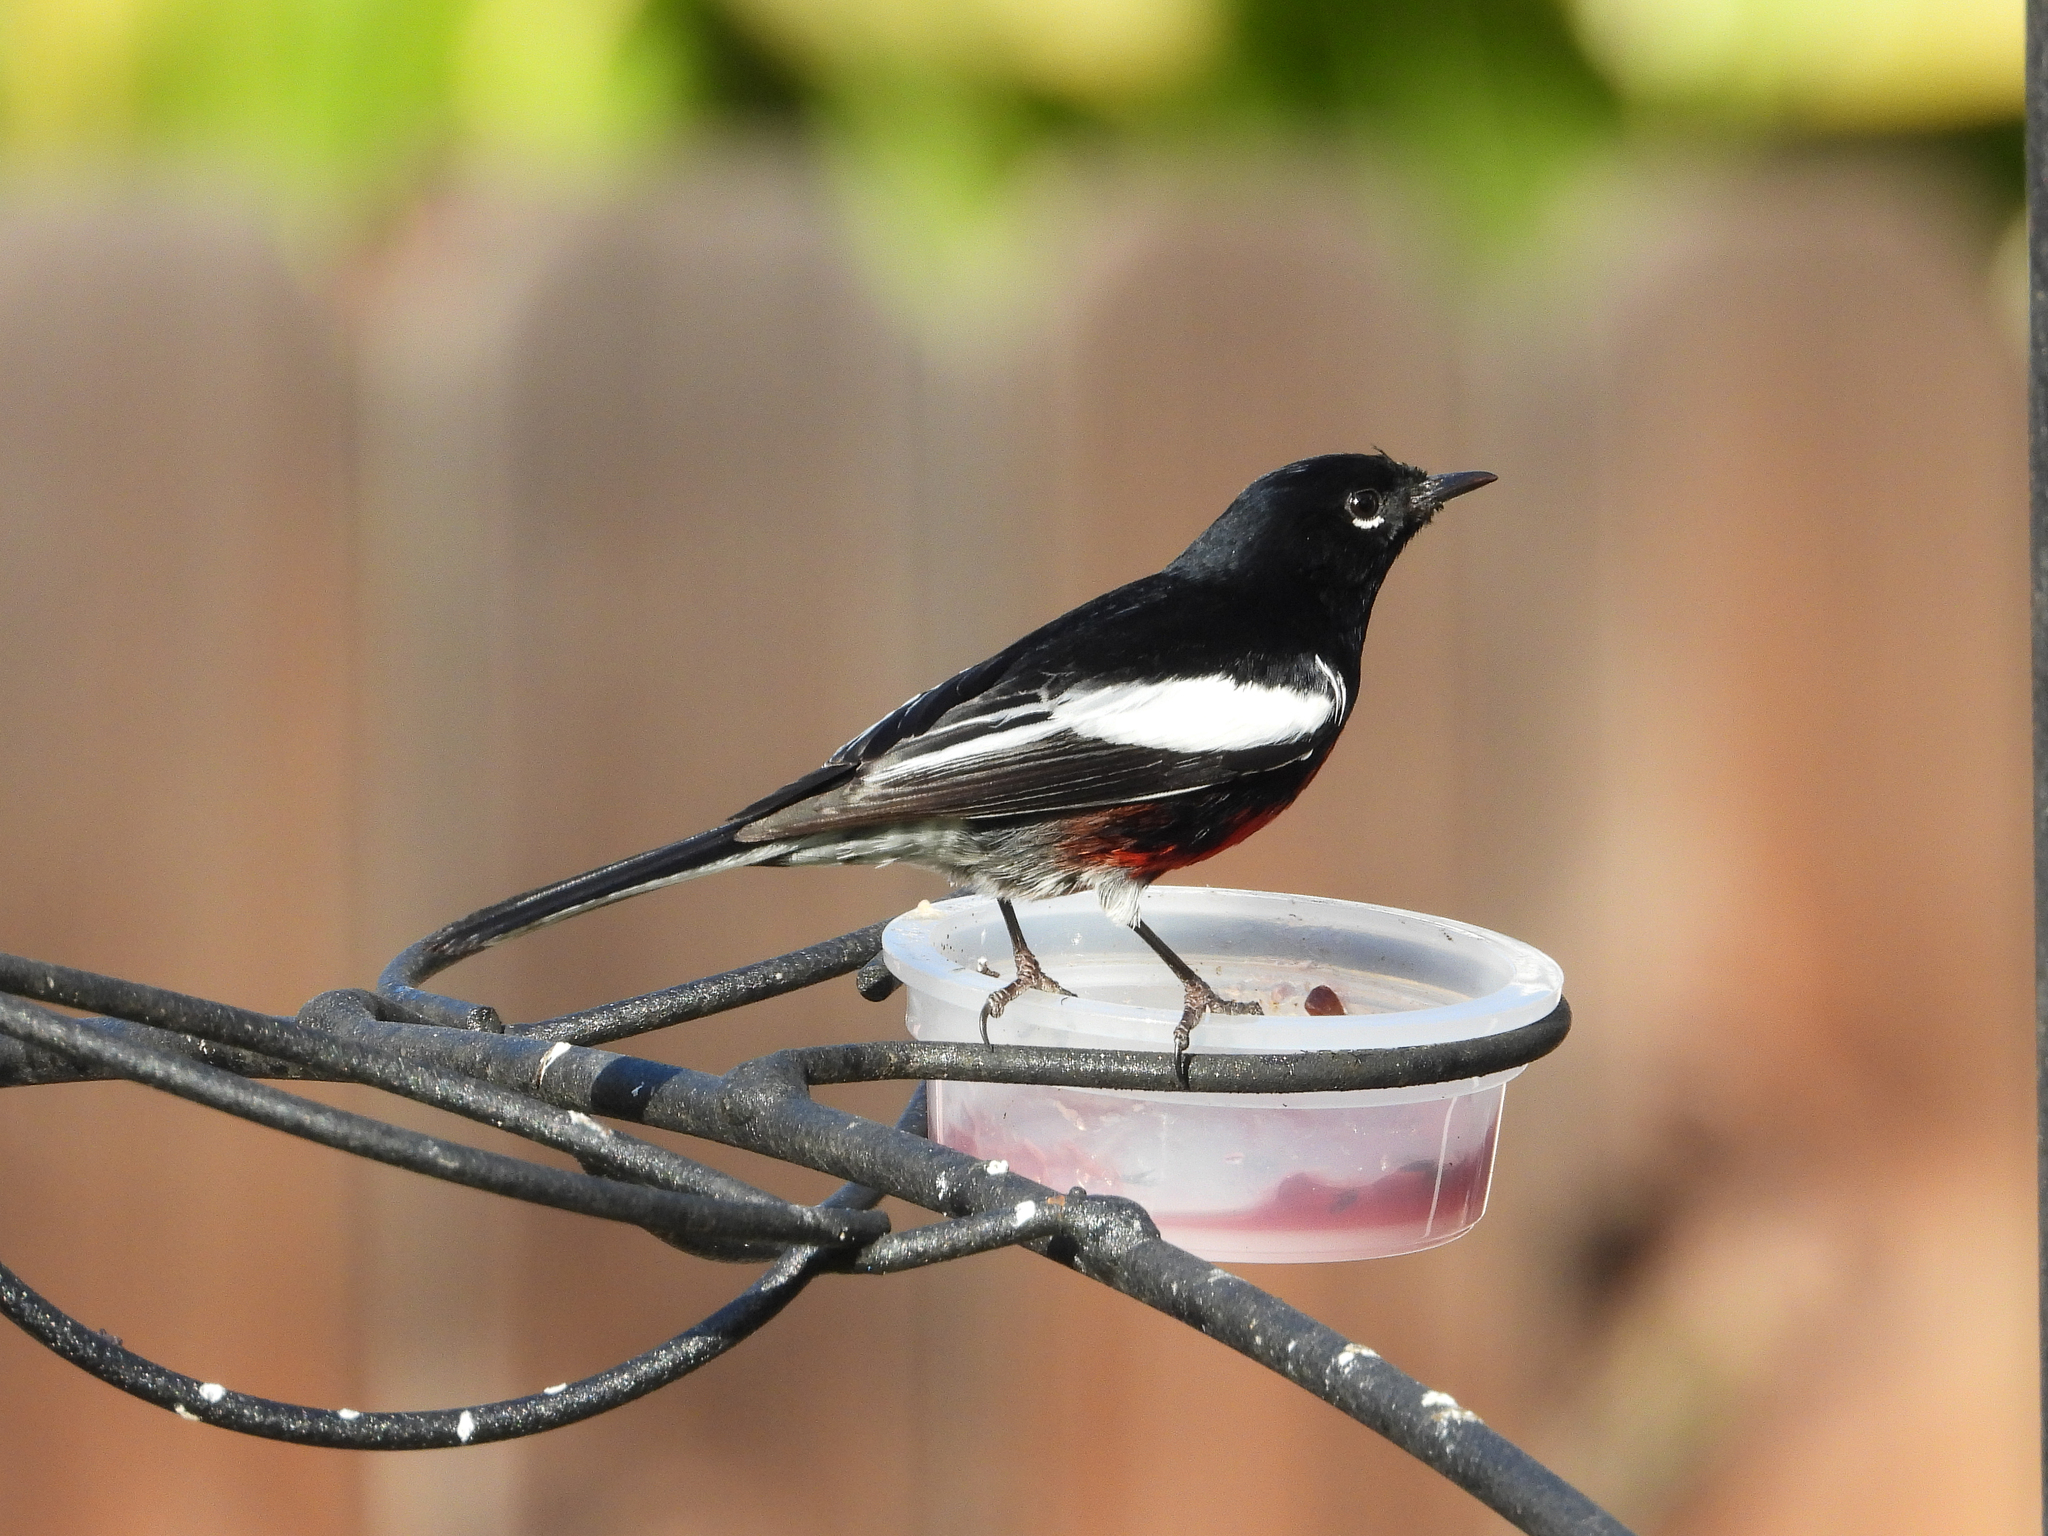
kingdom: Animalia
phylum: Chordata
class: Aves
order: Passeriformes
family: Parulidae
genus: Myioborus
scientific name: Myioborus pictus
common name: Painted whitestart
